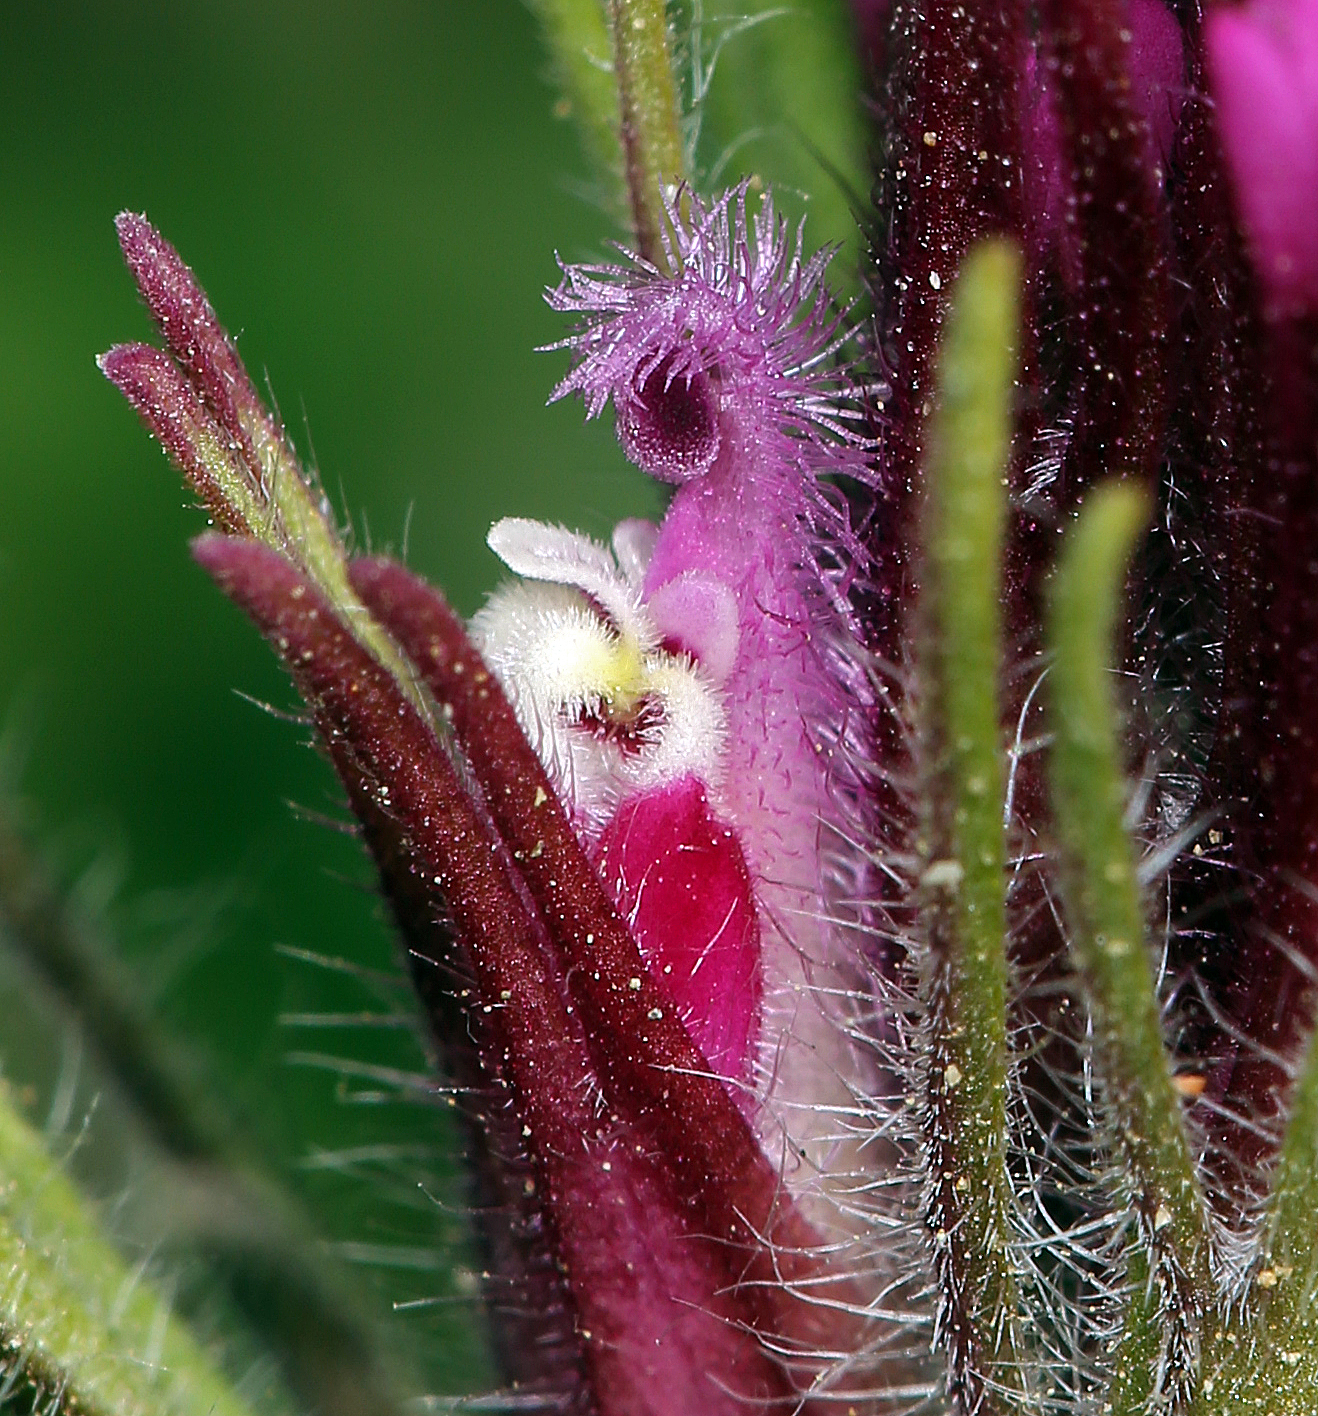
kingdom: Plantae
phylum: Tracheophyta
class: Magnoliopsida
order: Lamiales
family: Orobanchaceae
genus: Castilleja
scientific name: Castilleja exserta
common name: Purple owl-clover
